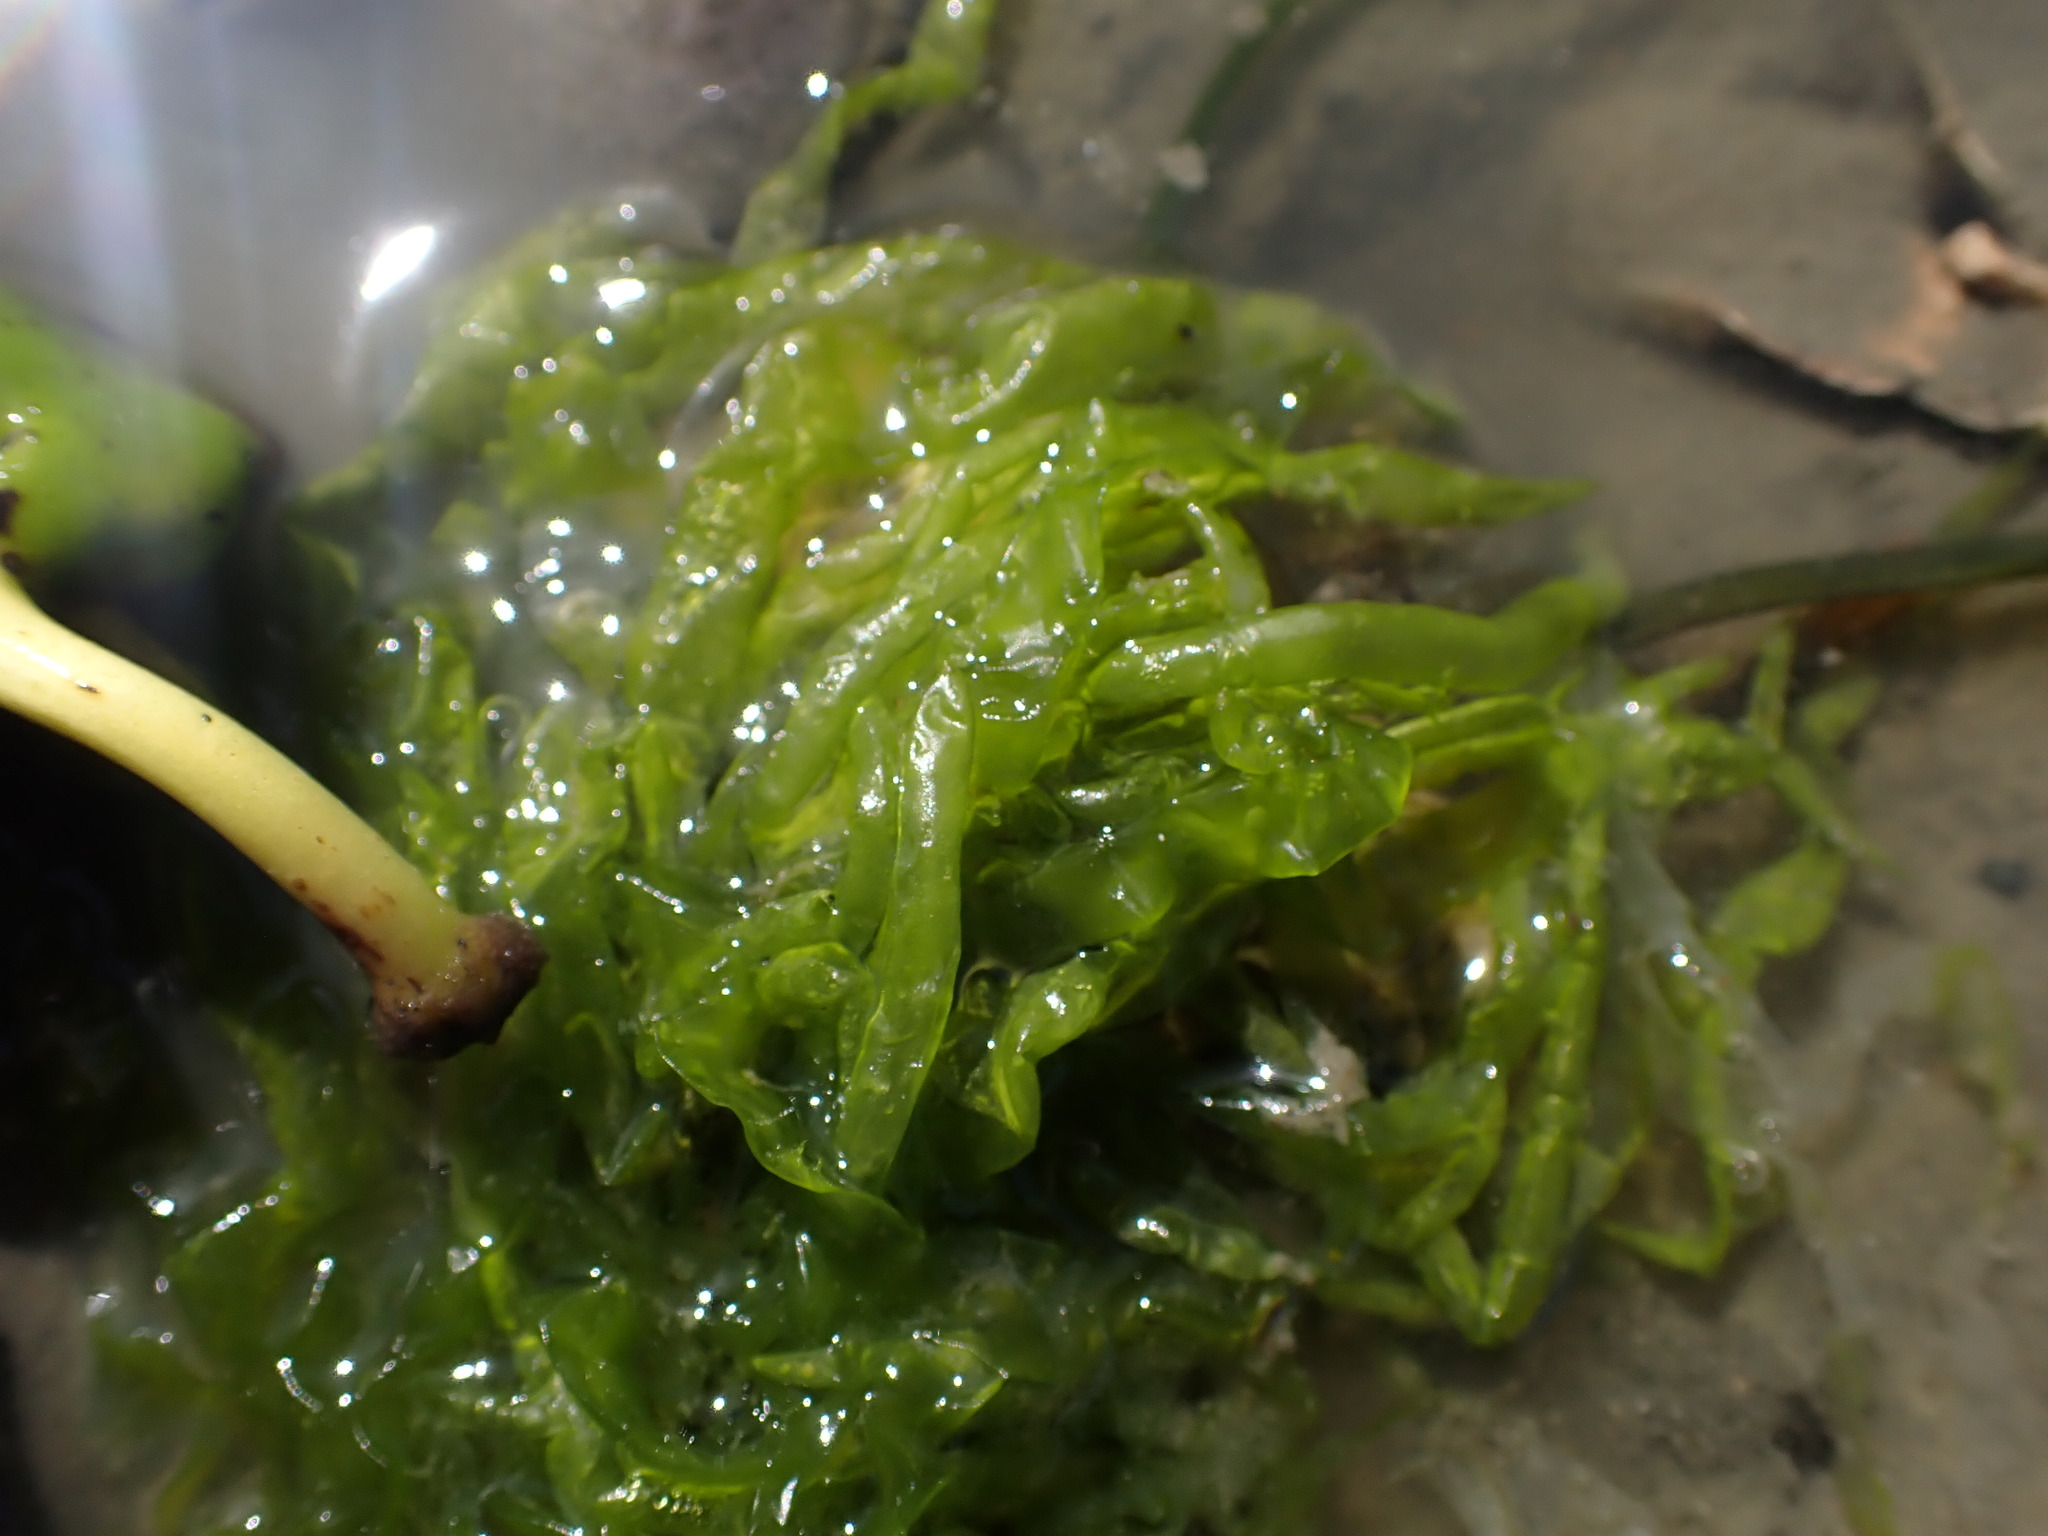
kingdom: Plantae
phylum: Chlorophyta
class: Ulvophyceae
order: Ulvales
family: Ulvaceae
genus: Ulva
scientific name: Ulva intestinalis
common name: Gut weed
